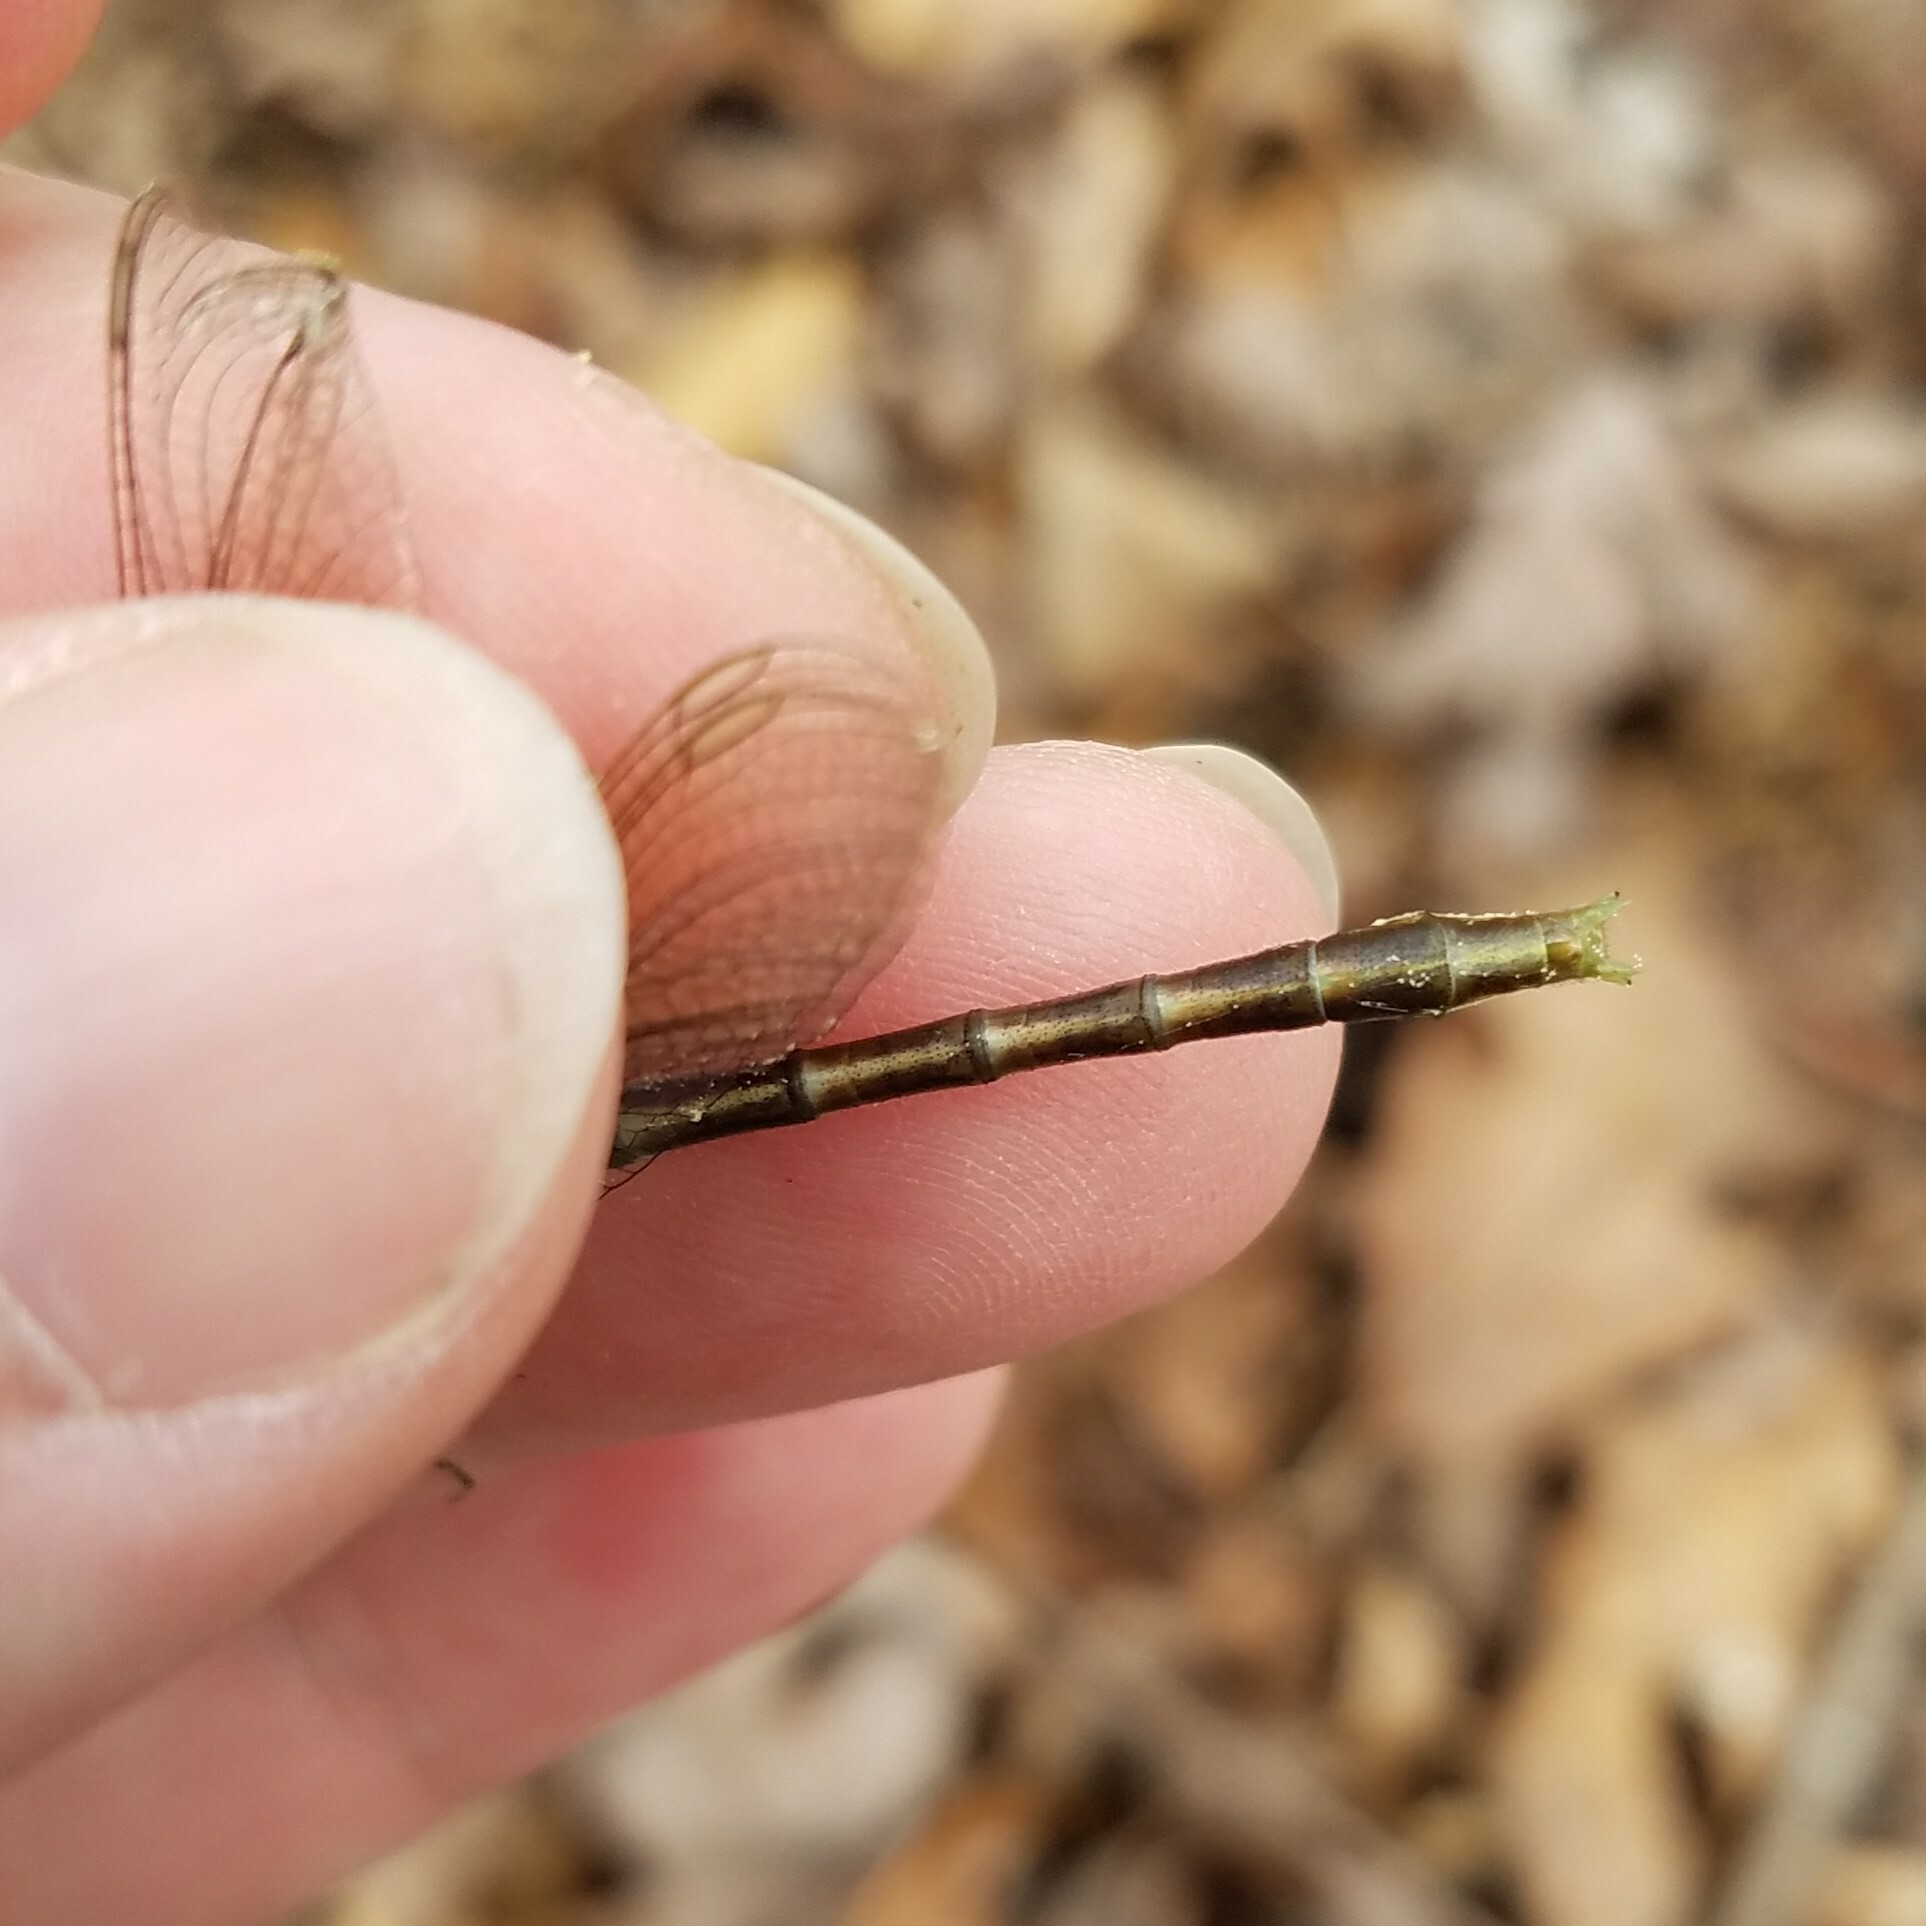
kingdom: Animalia
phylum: Arthropoda
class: Insecta
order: Odonata
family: Gomphidae
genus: Phanogomphus
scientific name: Phanogomphus exilis
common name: Lancet clubtail
